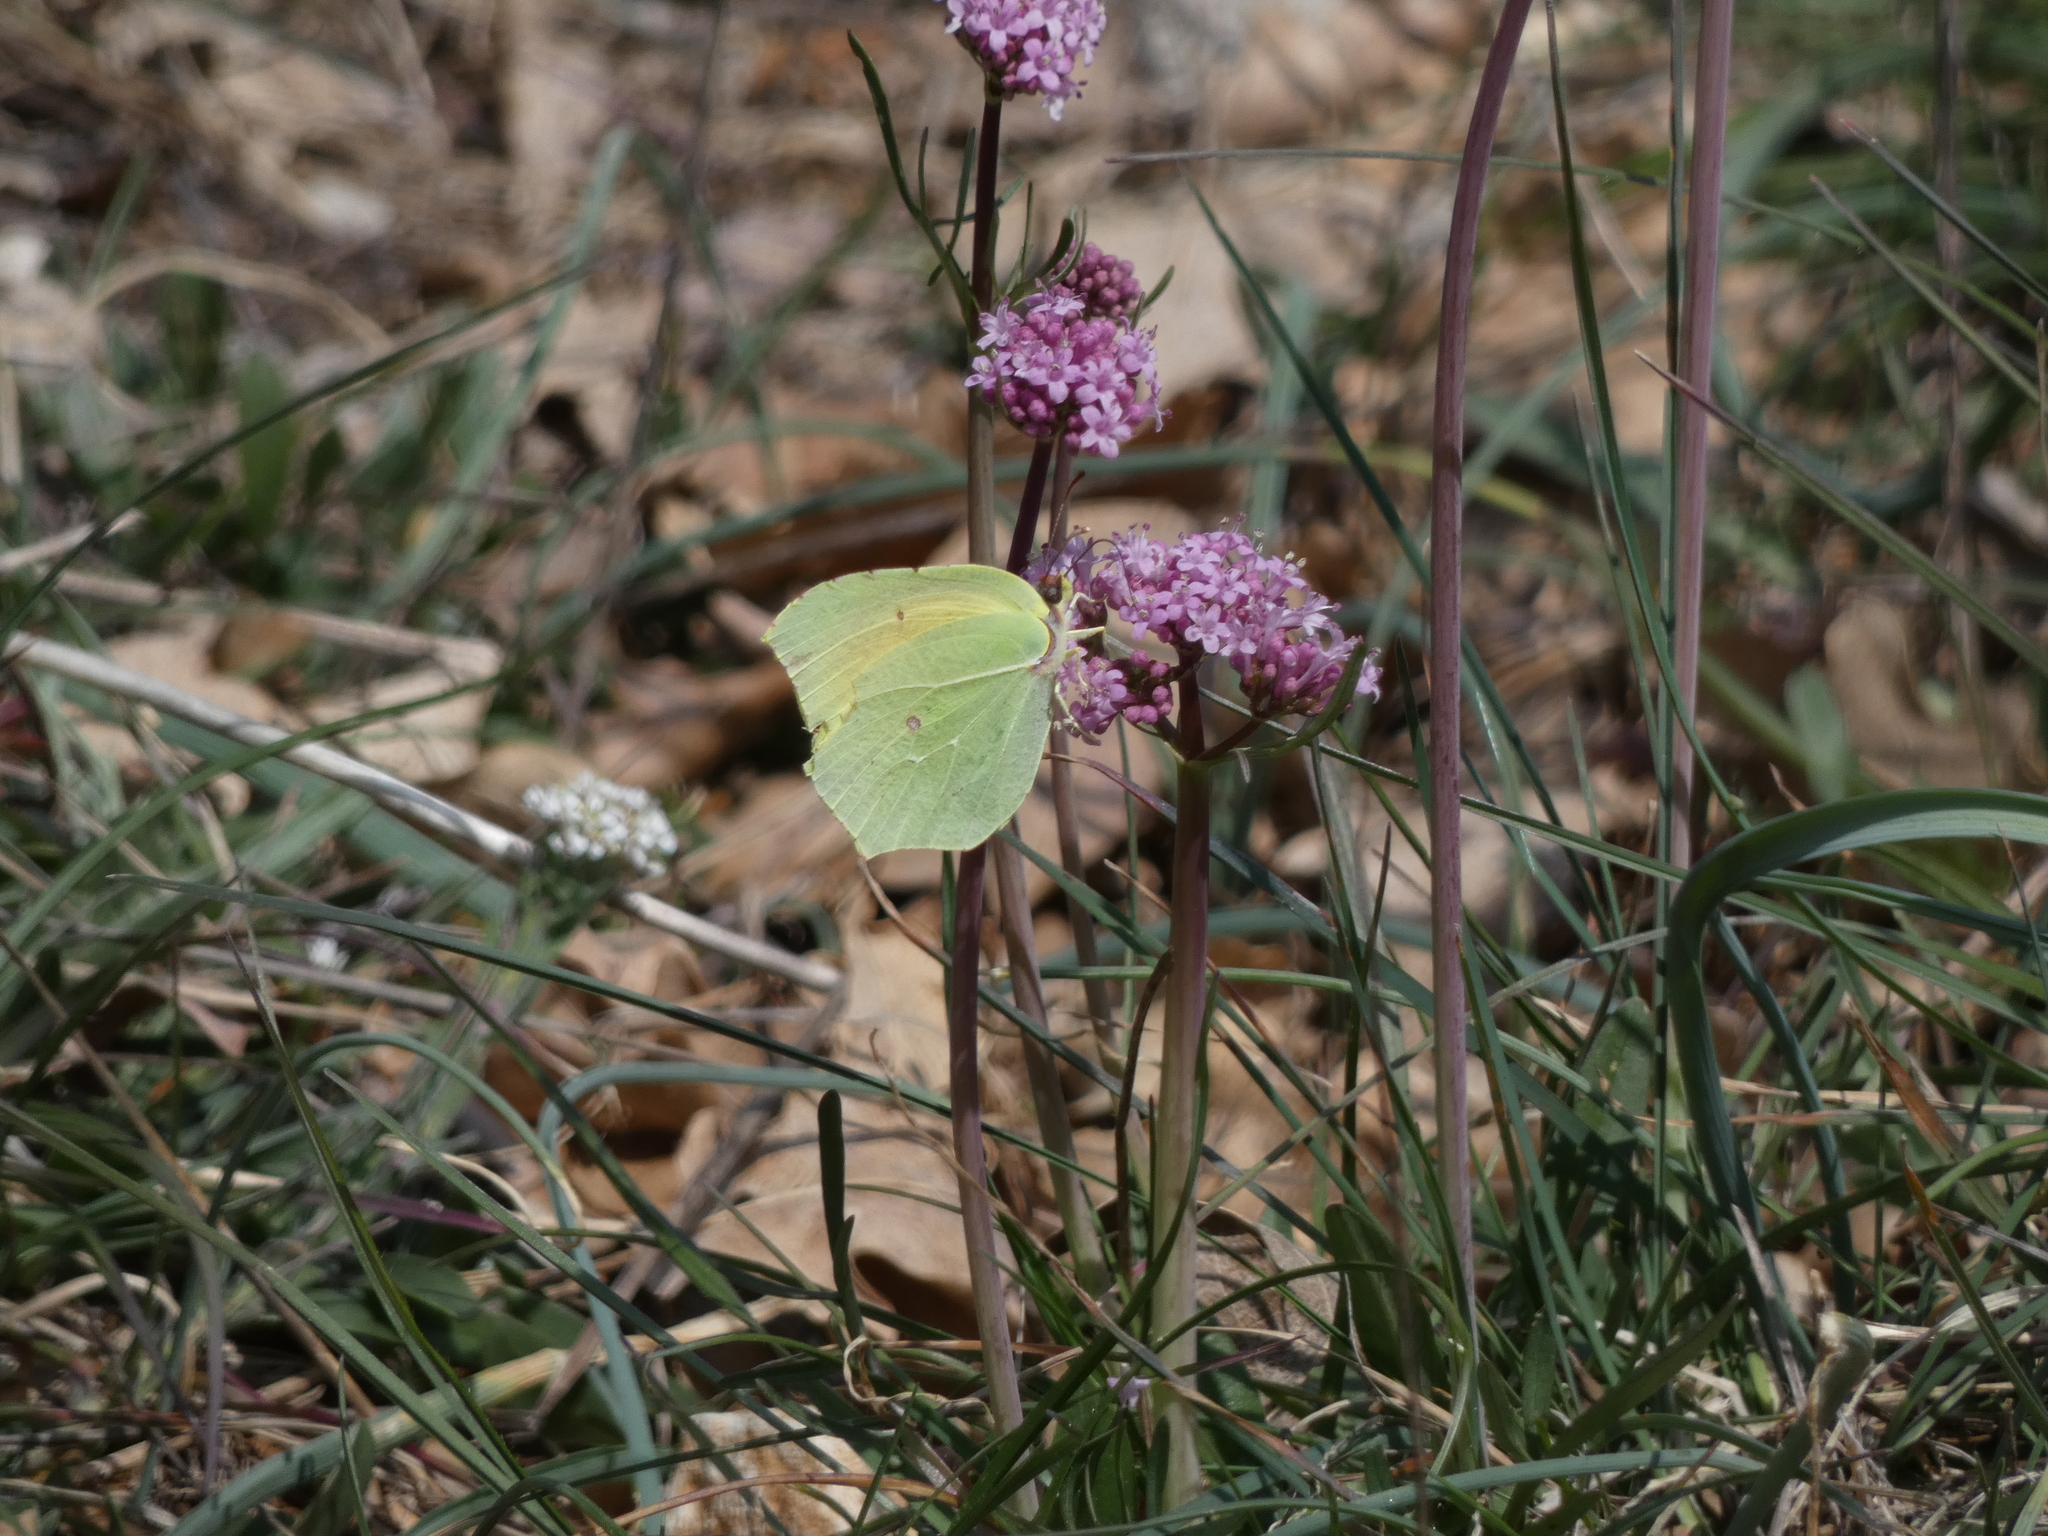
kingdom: Animalia
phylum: Arthropoda
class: Insecta
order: Lepidoptera
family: Pieridae
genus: Gonepteryx
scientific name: Gonepteryx cleopatra
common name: Cleopatra
